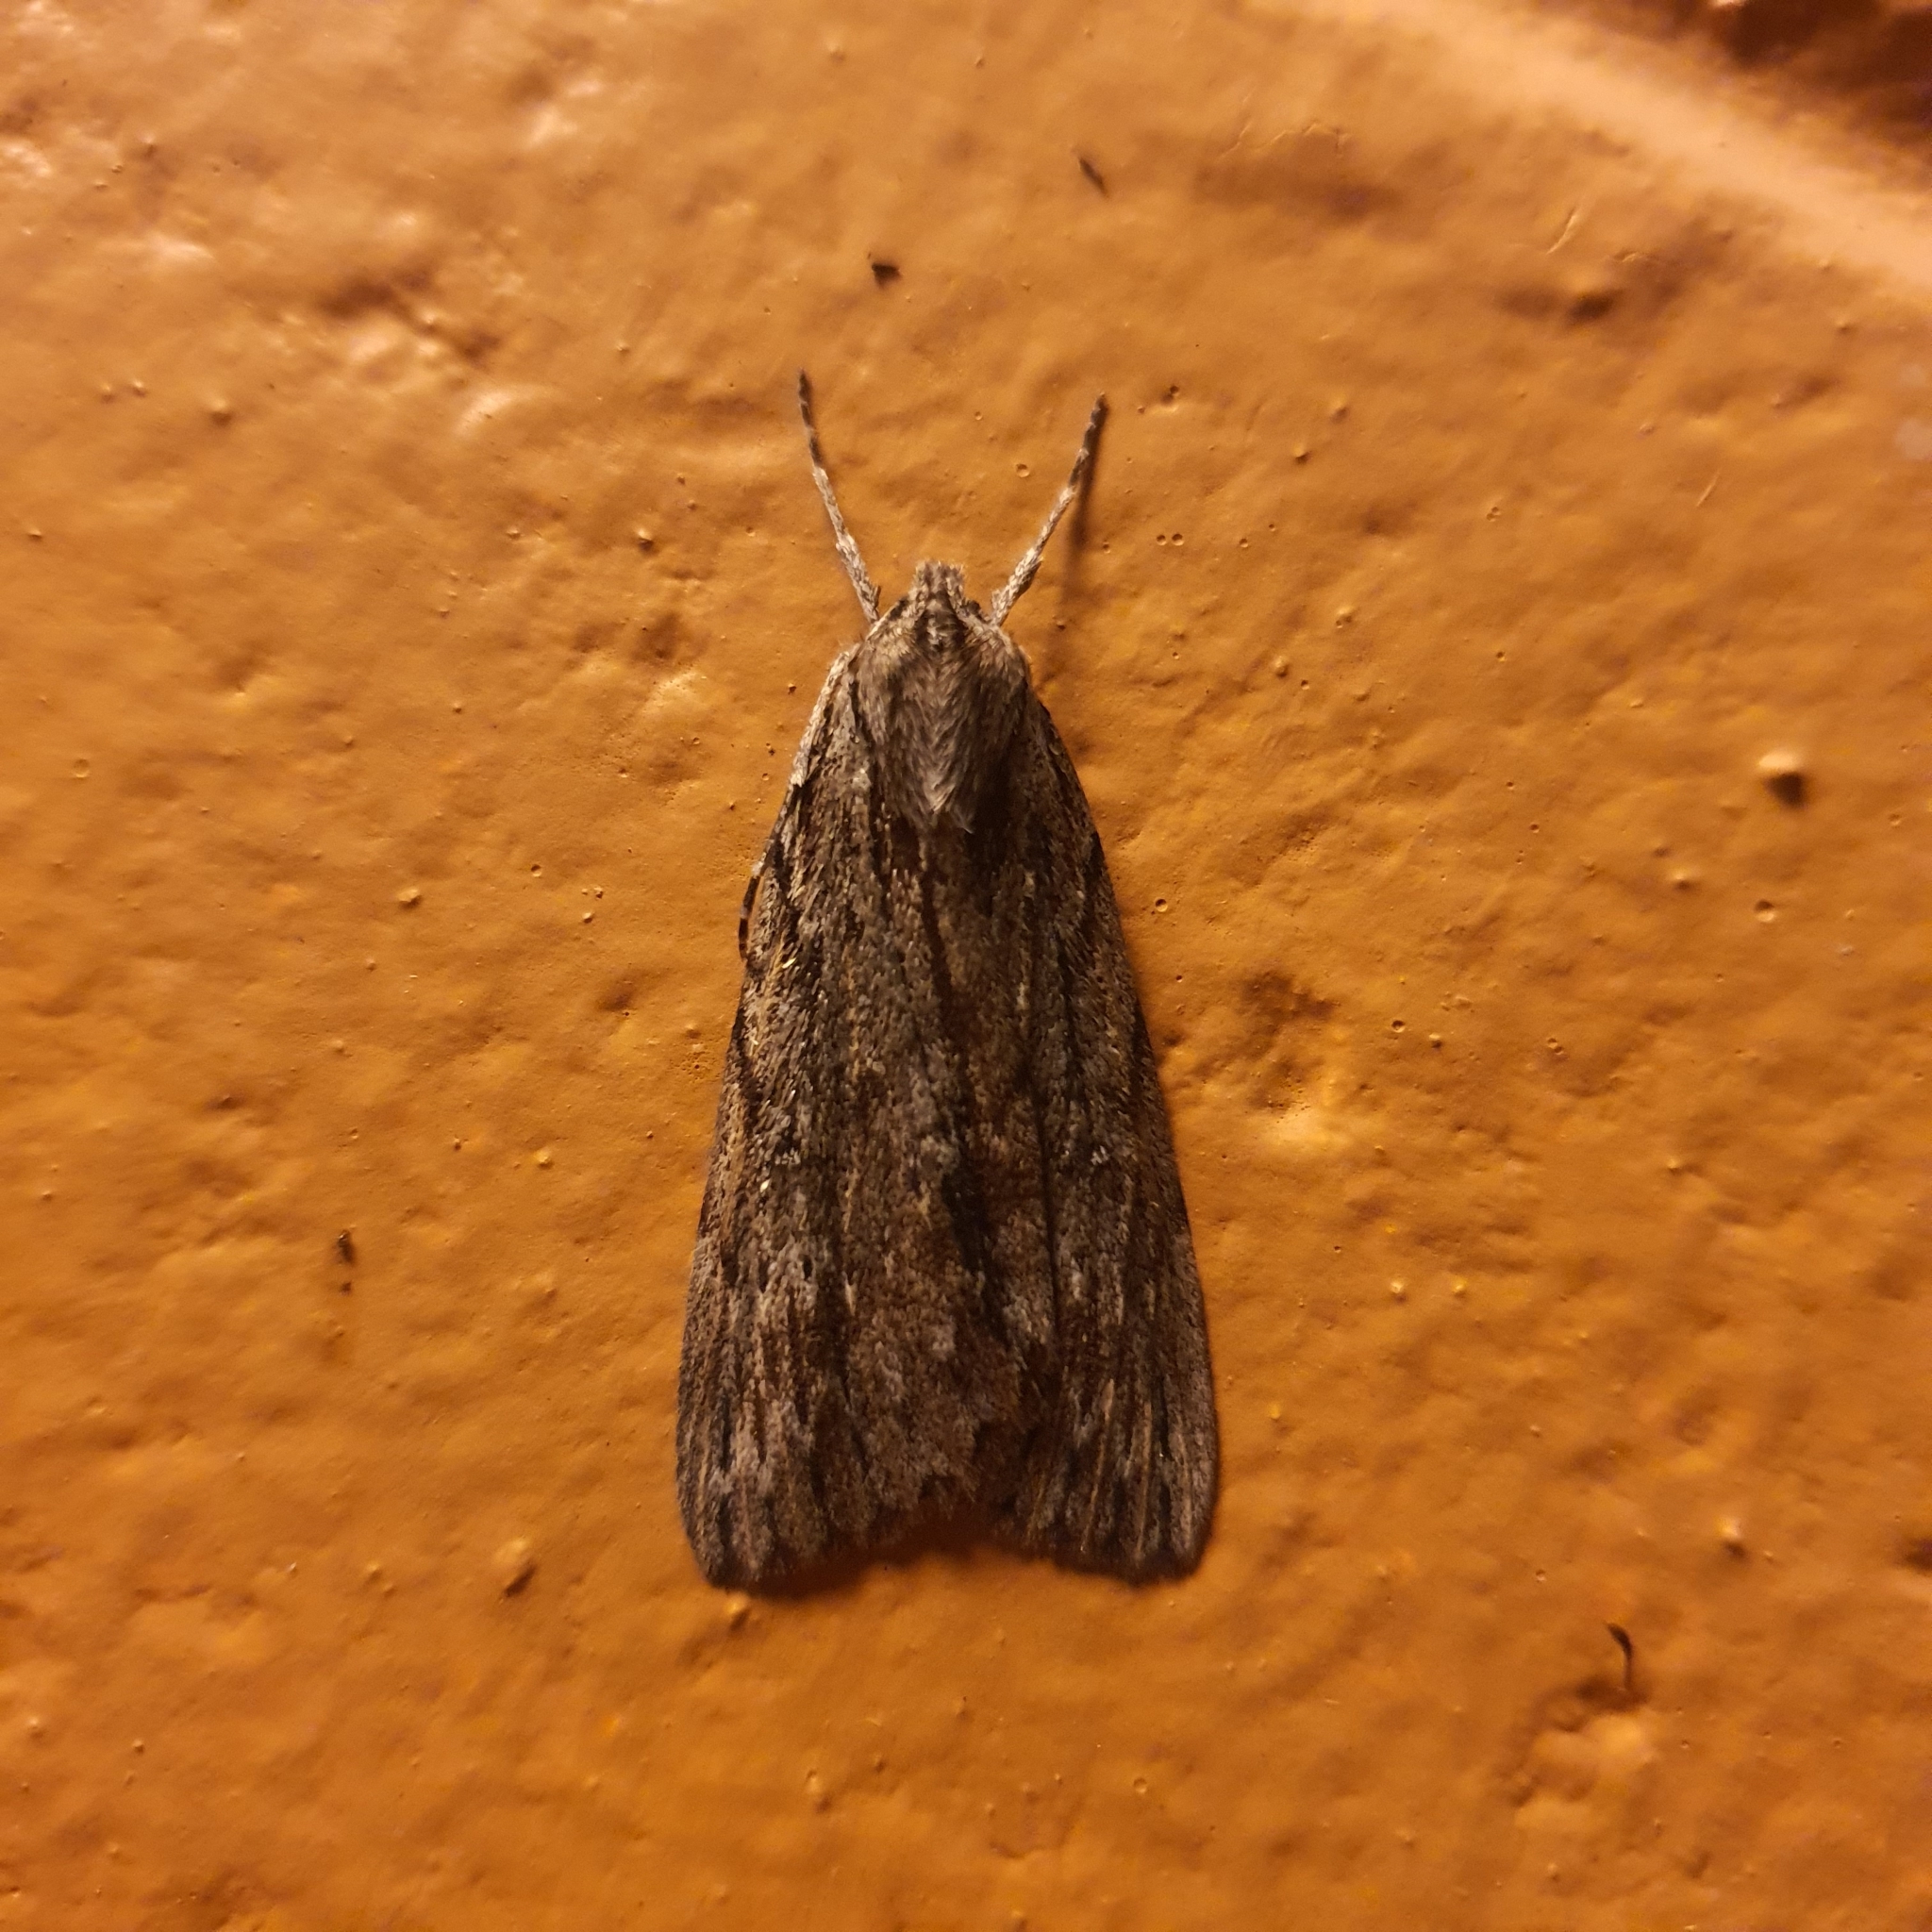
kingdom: Animalia
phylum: Arthropoda
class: Insecta
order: Lepidoptera
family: Geometridae
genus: Chlenias
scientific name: Chlenias banksiaria
